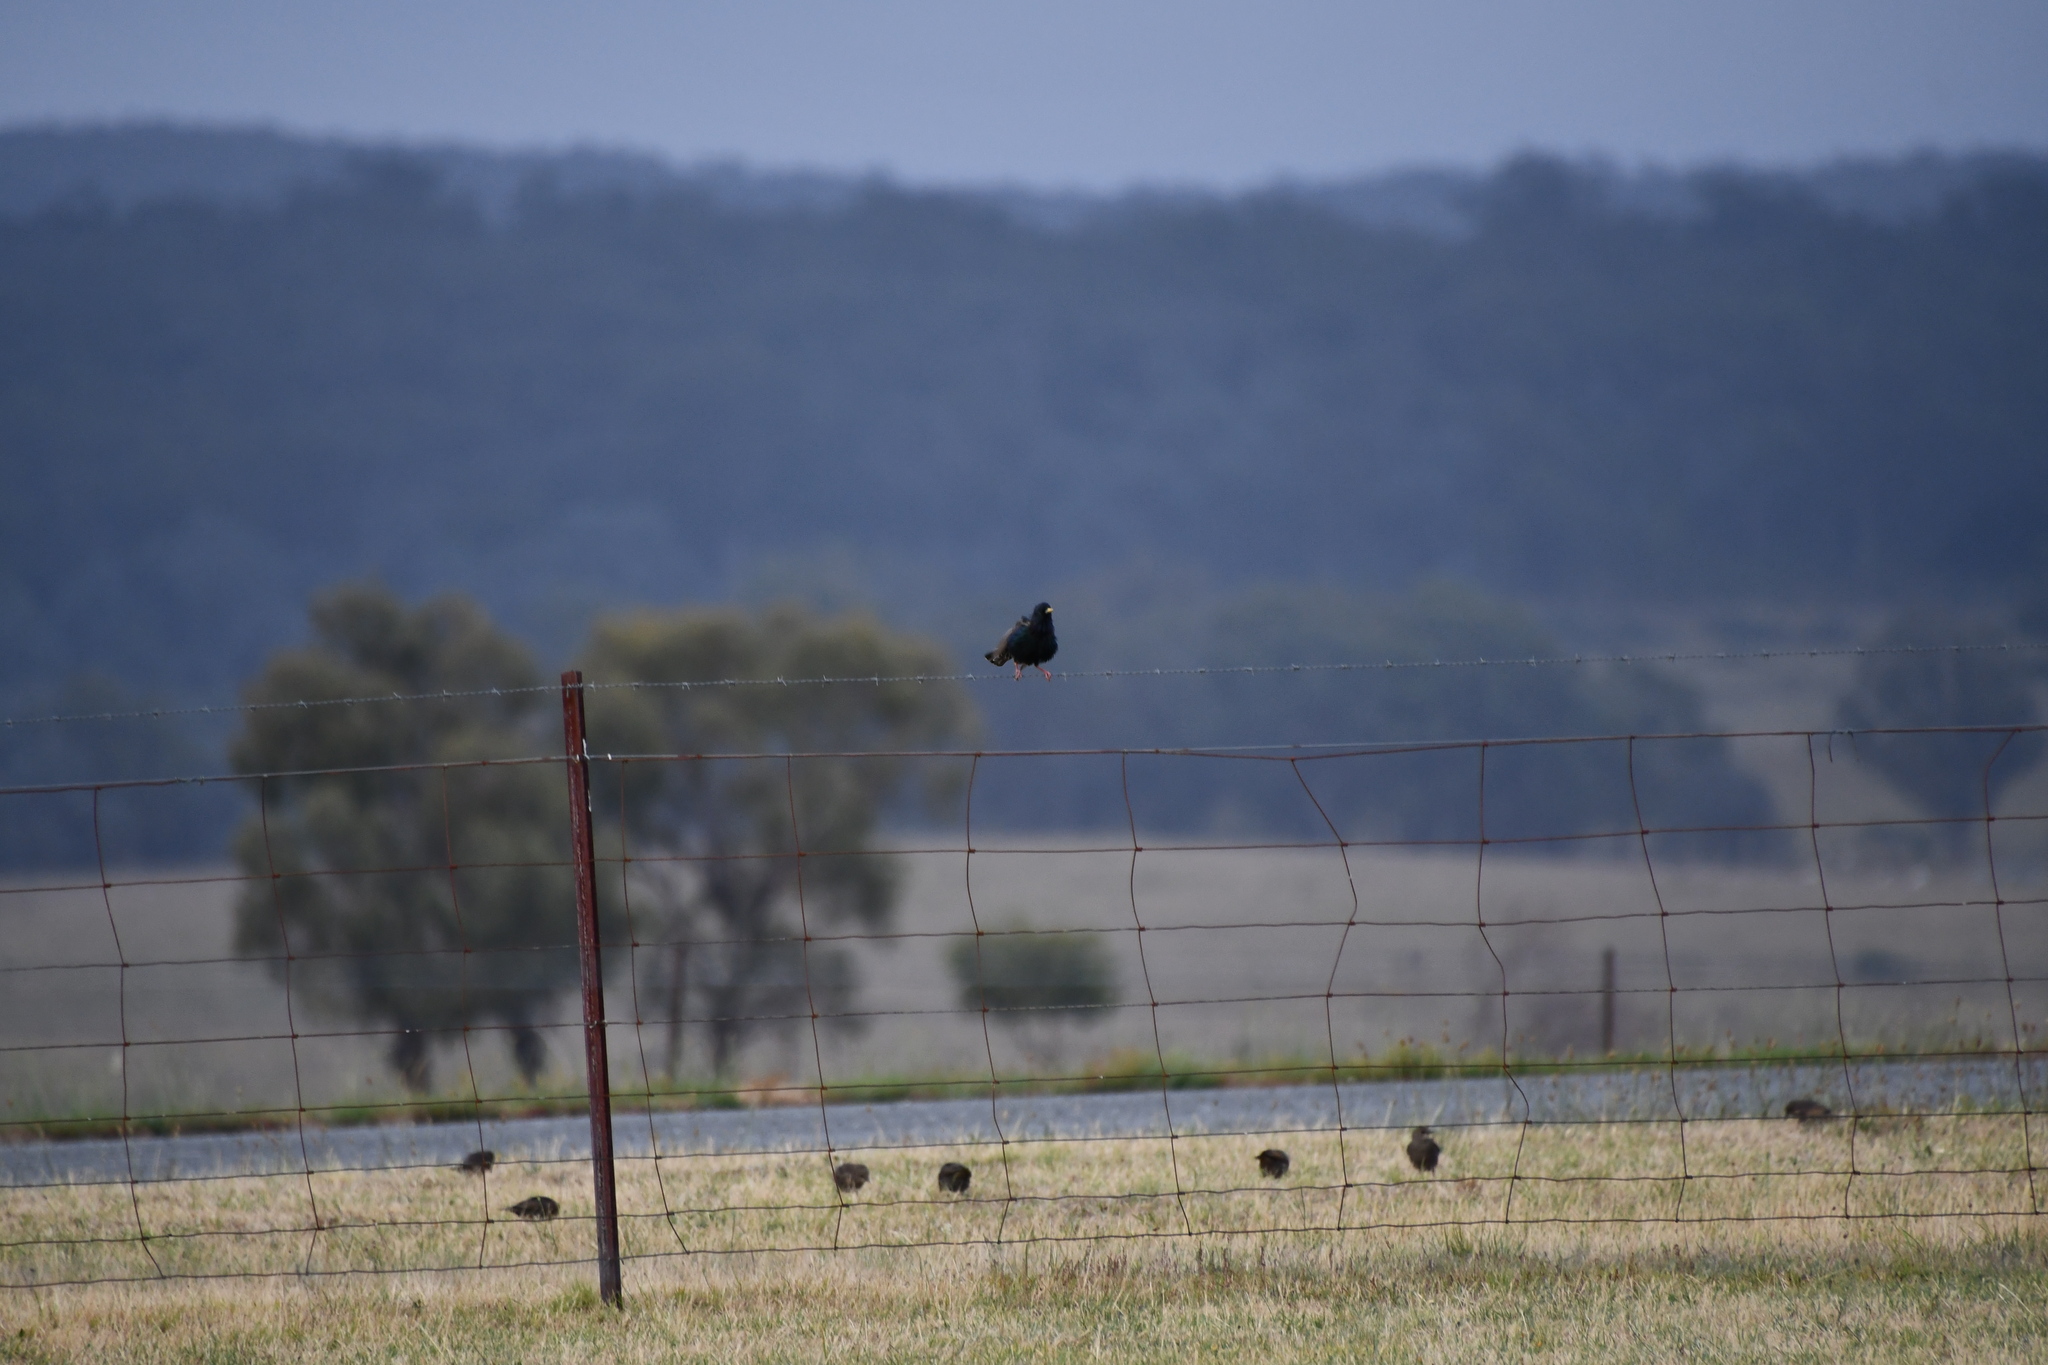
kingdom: Animalia
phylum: Chordata
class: Aves
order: Passeriformes
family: Sturnidae
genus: Sturnus
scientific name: Sturnus vulgaris
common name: Common starling
